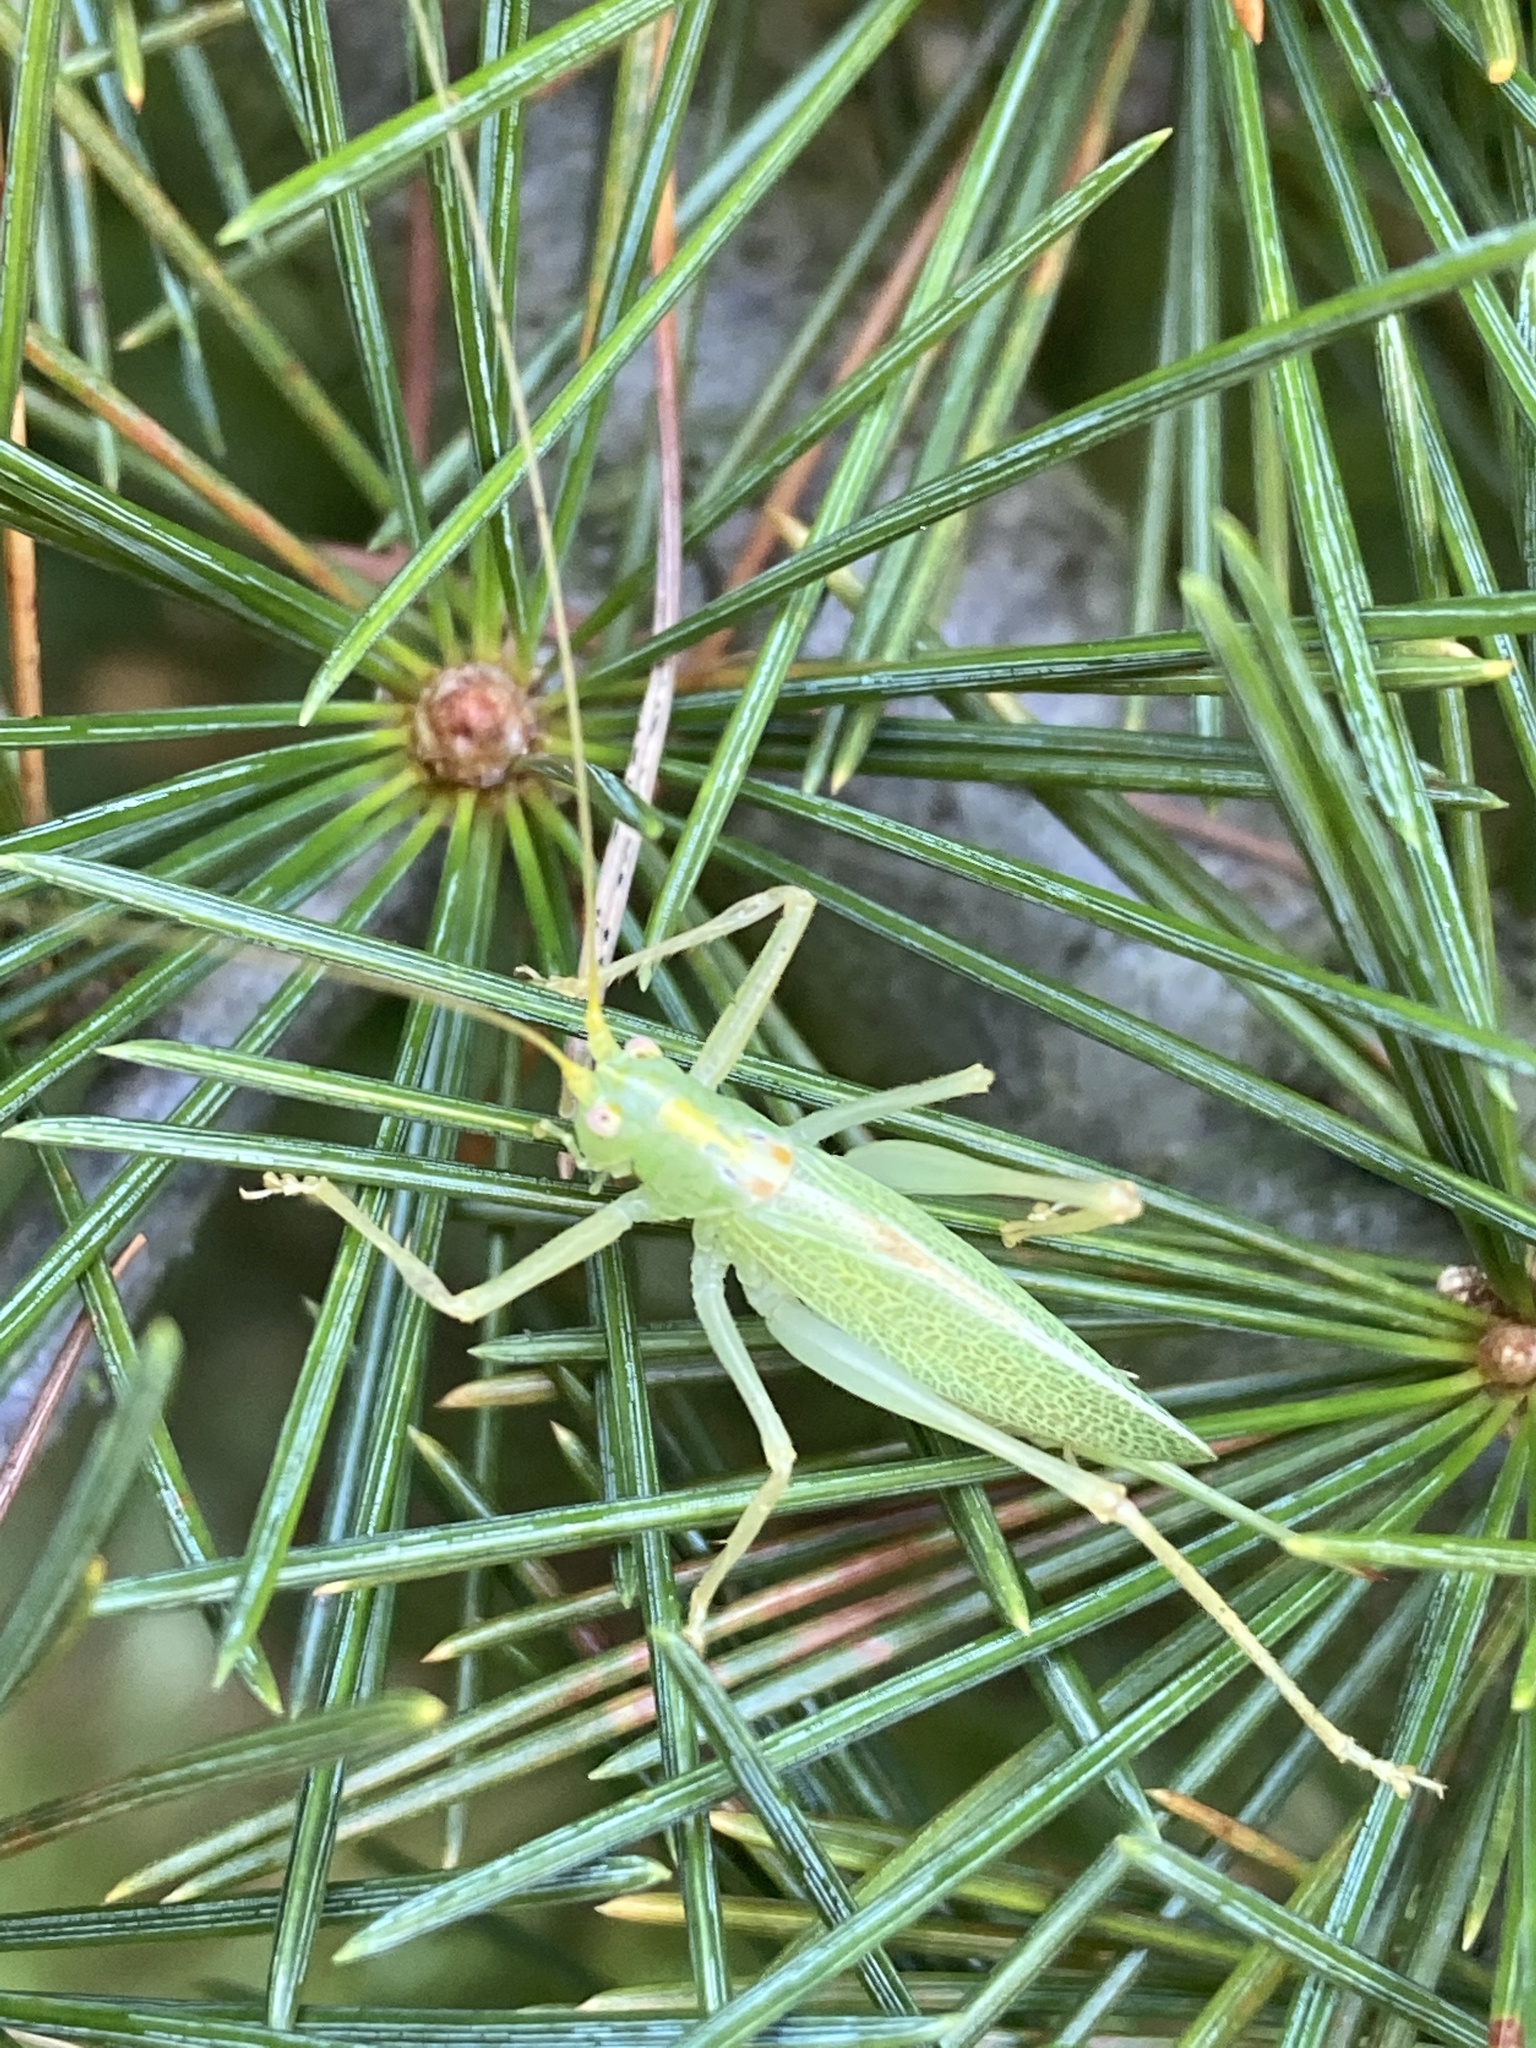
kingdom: Animalia
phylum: Arthropoda
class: Insecta
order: Orthoptera
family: Tettigoniidae
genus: Meconema
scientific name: Meconema thalassinum
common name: Oak bush-cricket
